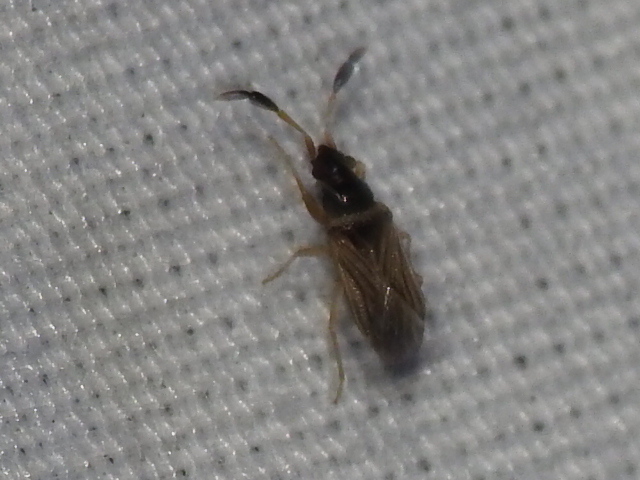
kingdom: Animalia
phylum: Arthropoda
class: Insecta
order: Hemiptera
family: Rhyparochromidae
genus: Ptochiomera
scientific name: Ptochiomera nodosa
